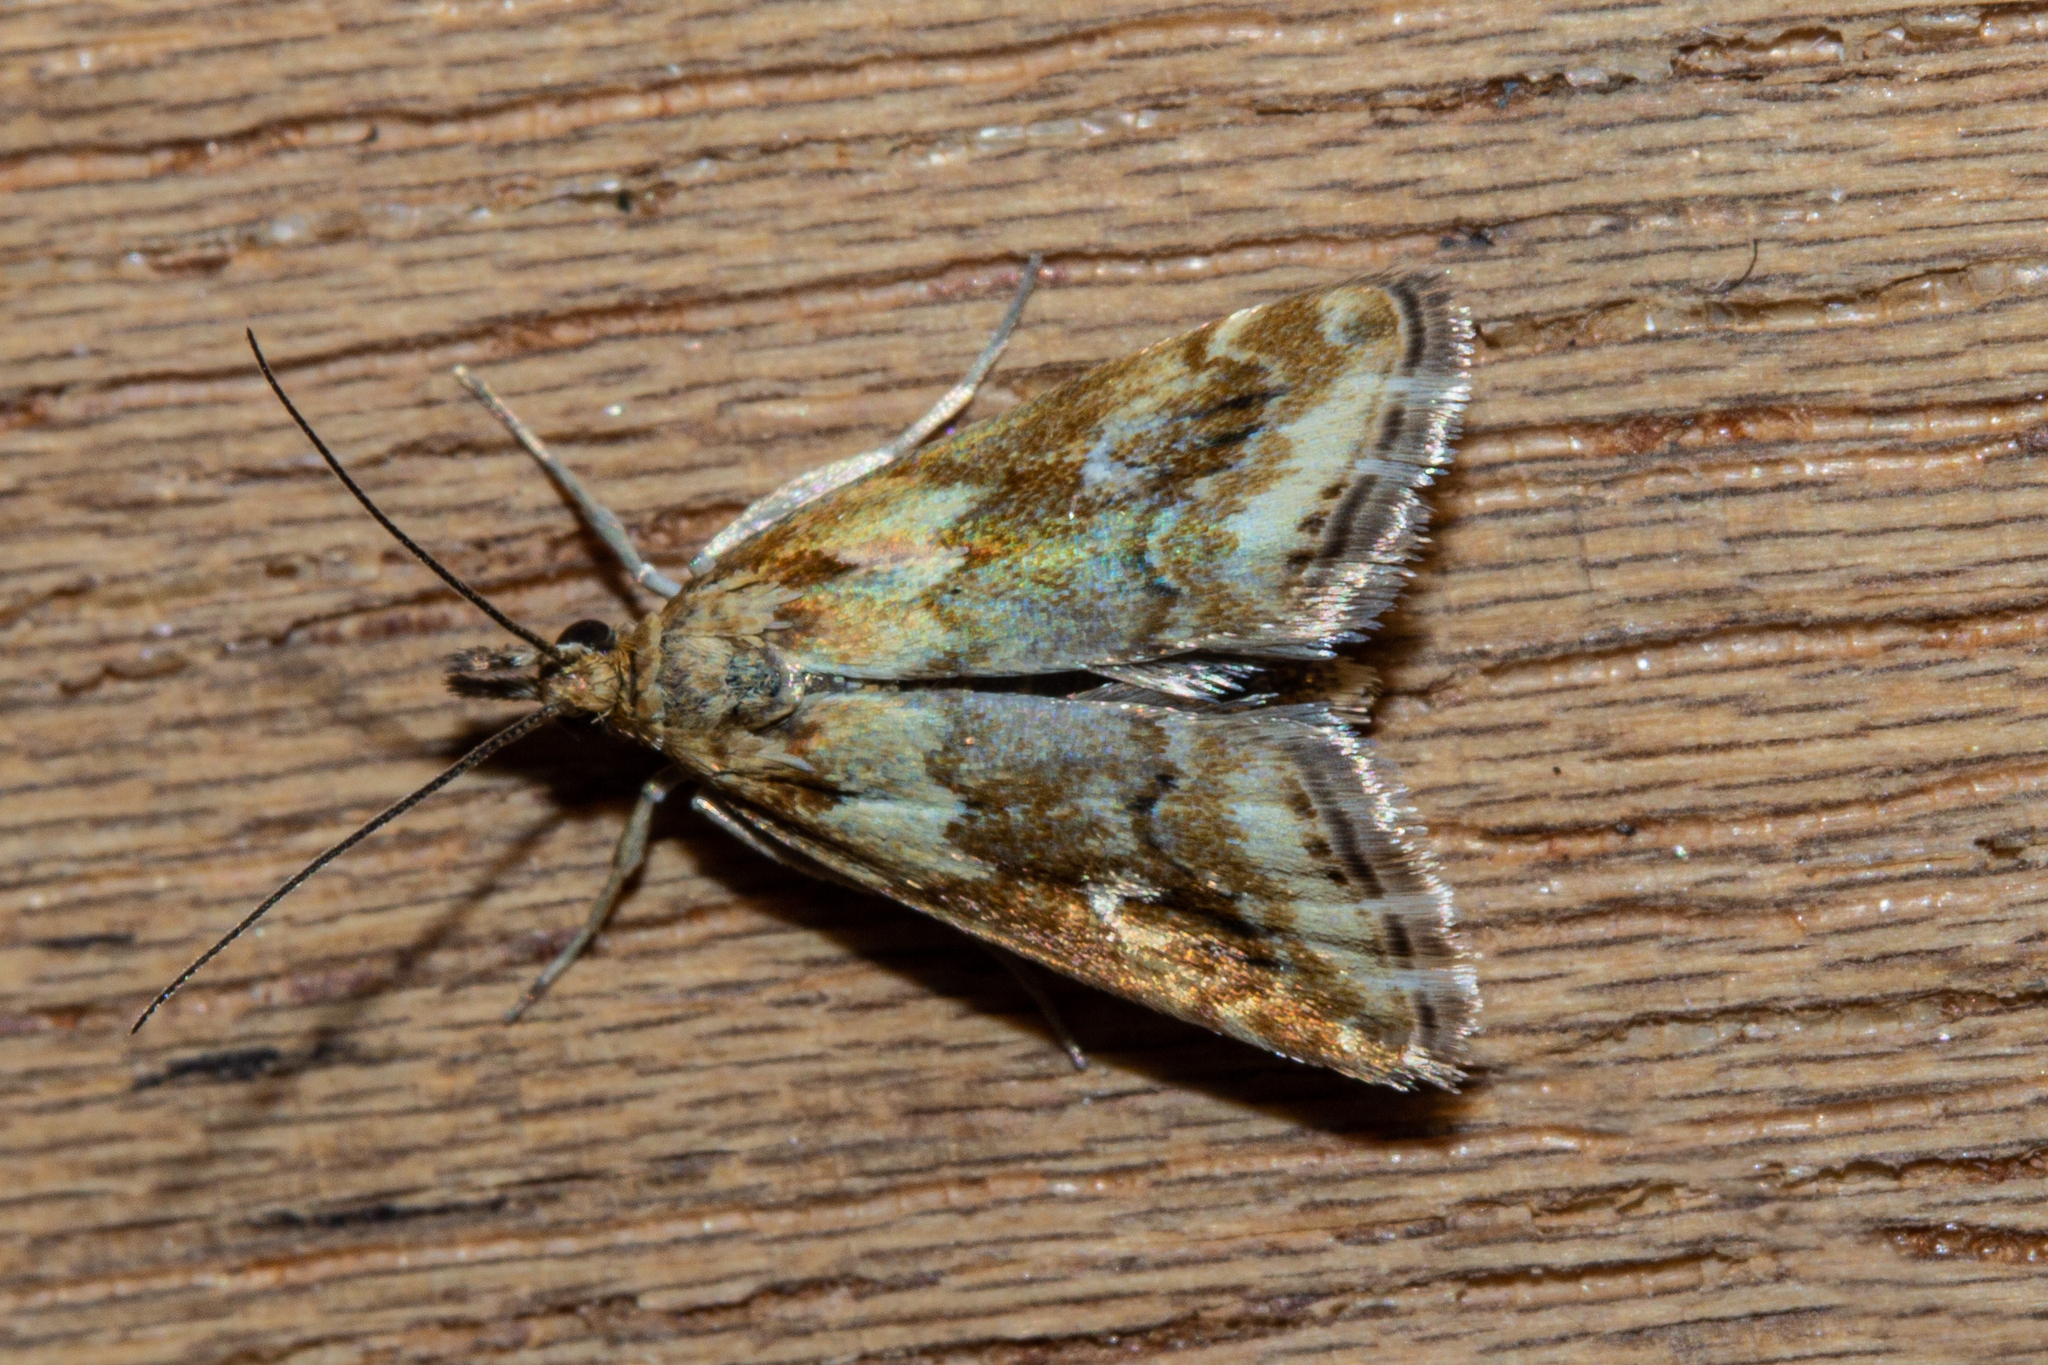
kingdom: Animalia
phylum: Arthropoda
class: Insecta
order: Lepidoptera
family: Crambidae
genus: Glaucocharis
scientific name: Glaucocharis helioctypa
